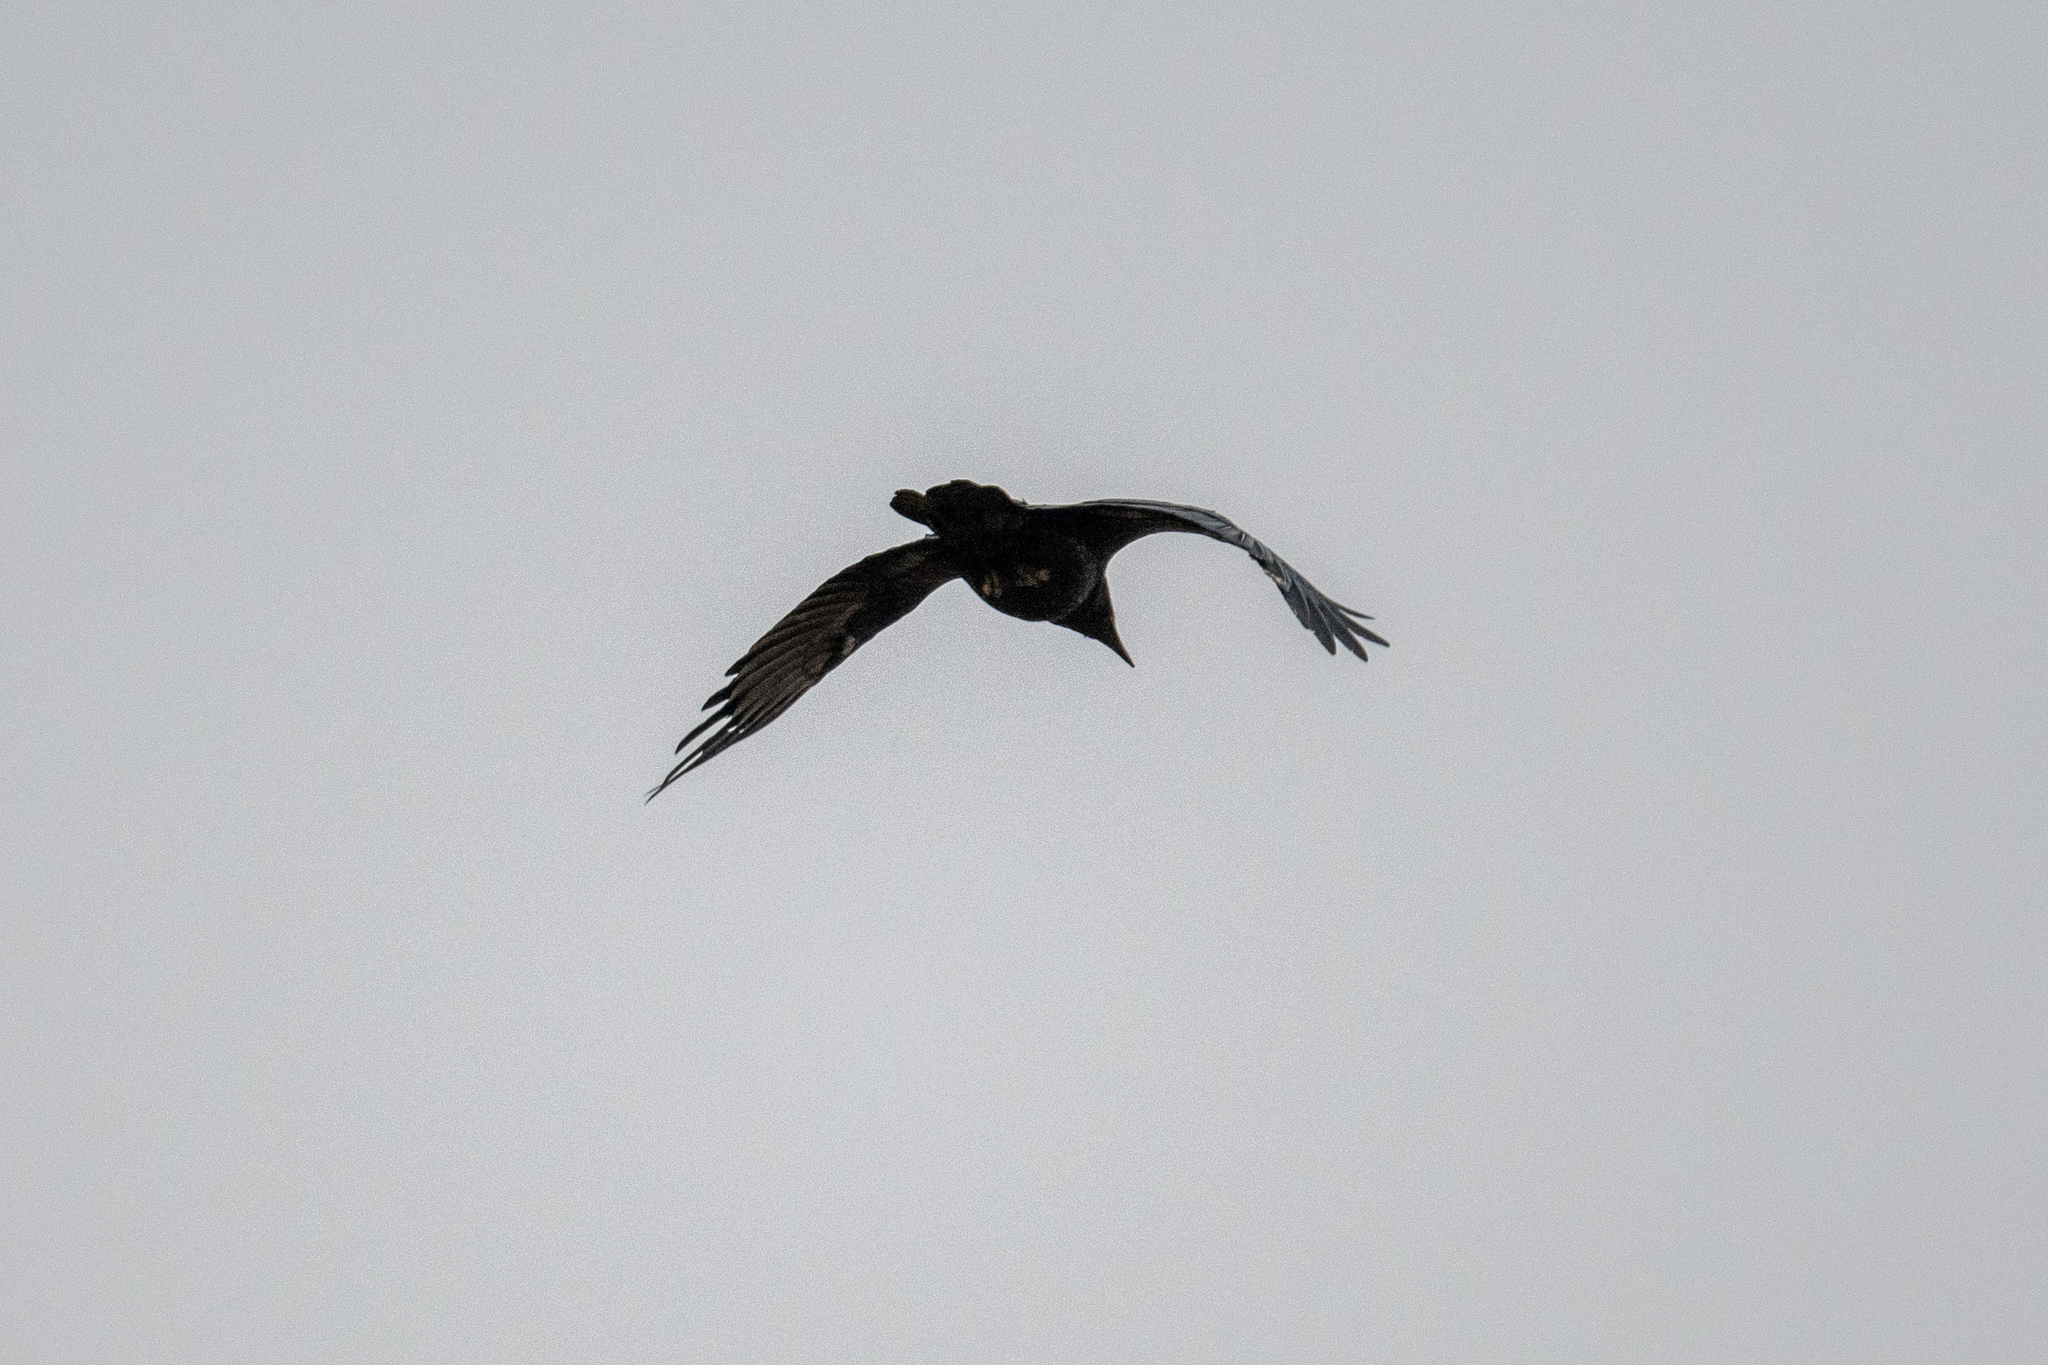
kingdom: Animalia
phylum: Chordata
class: Aves
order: Passeriformes
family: Corvidae
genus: Corvus
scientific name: Corvus brachyrhynchos
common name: American crow
